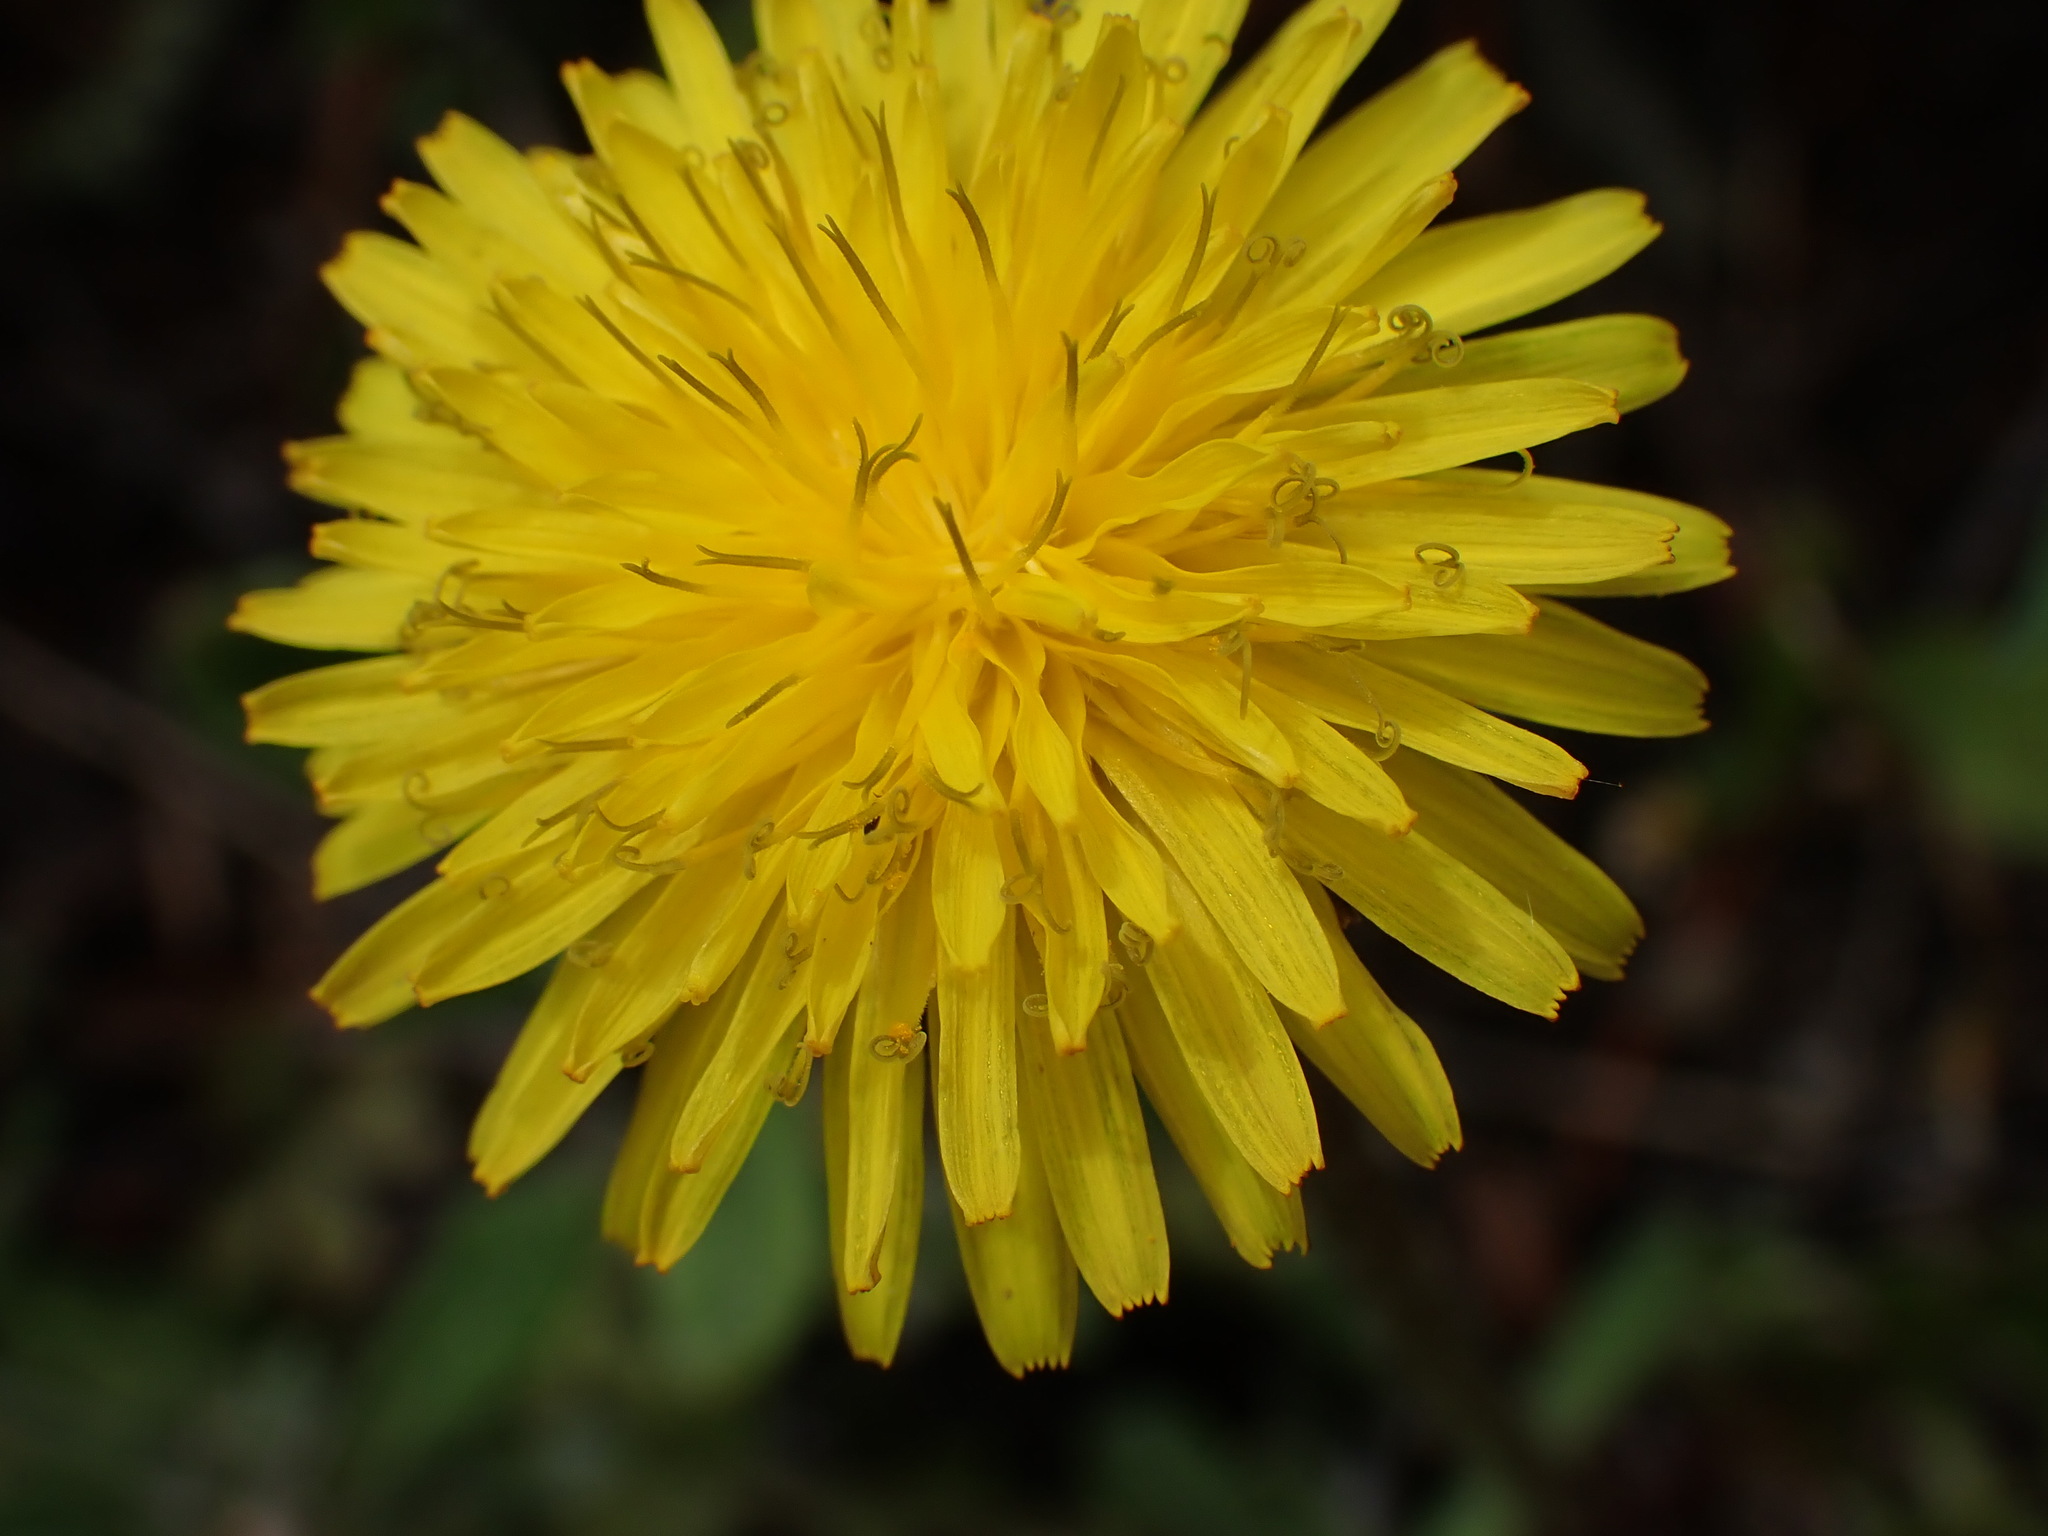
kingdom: Plantae
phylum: Tracheophyta
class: Magnoliopsida
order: Asterales
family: Asteraceae
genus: Taraxacum
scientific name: Taraxacum
